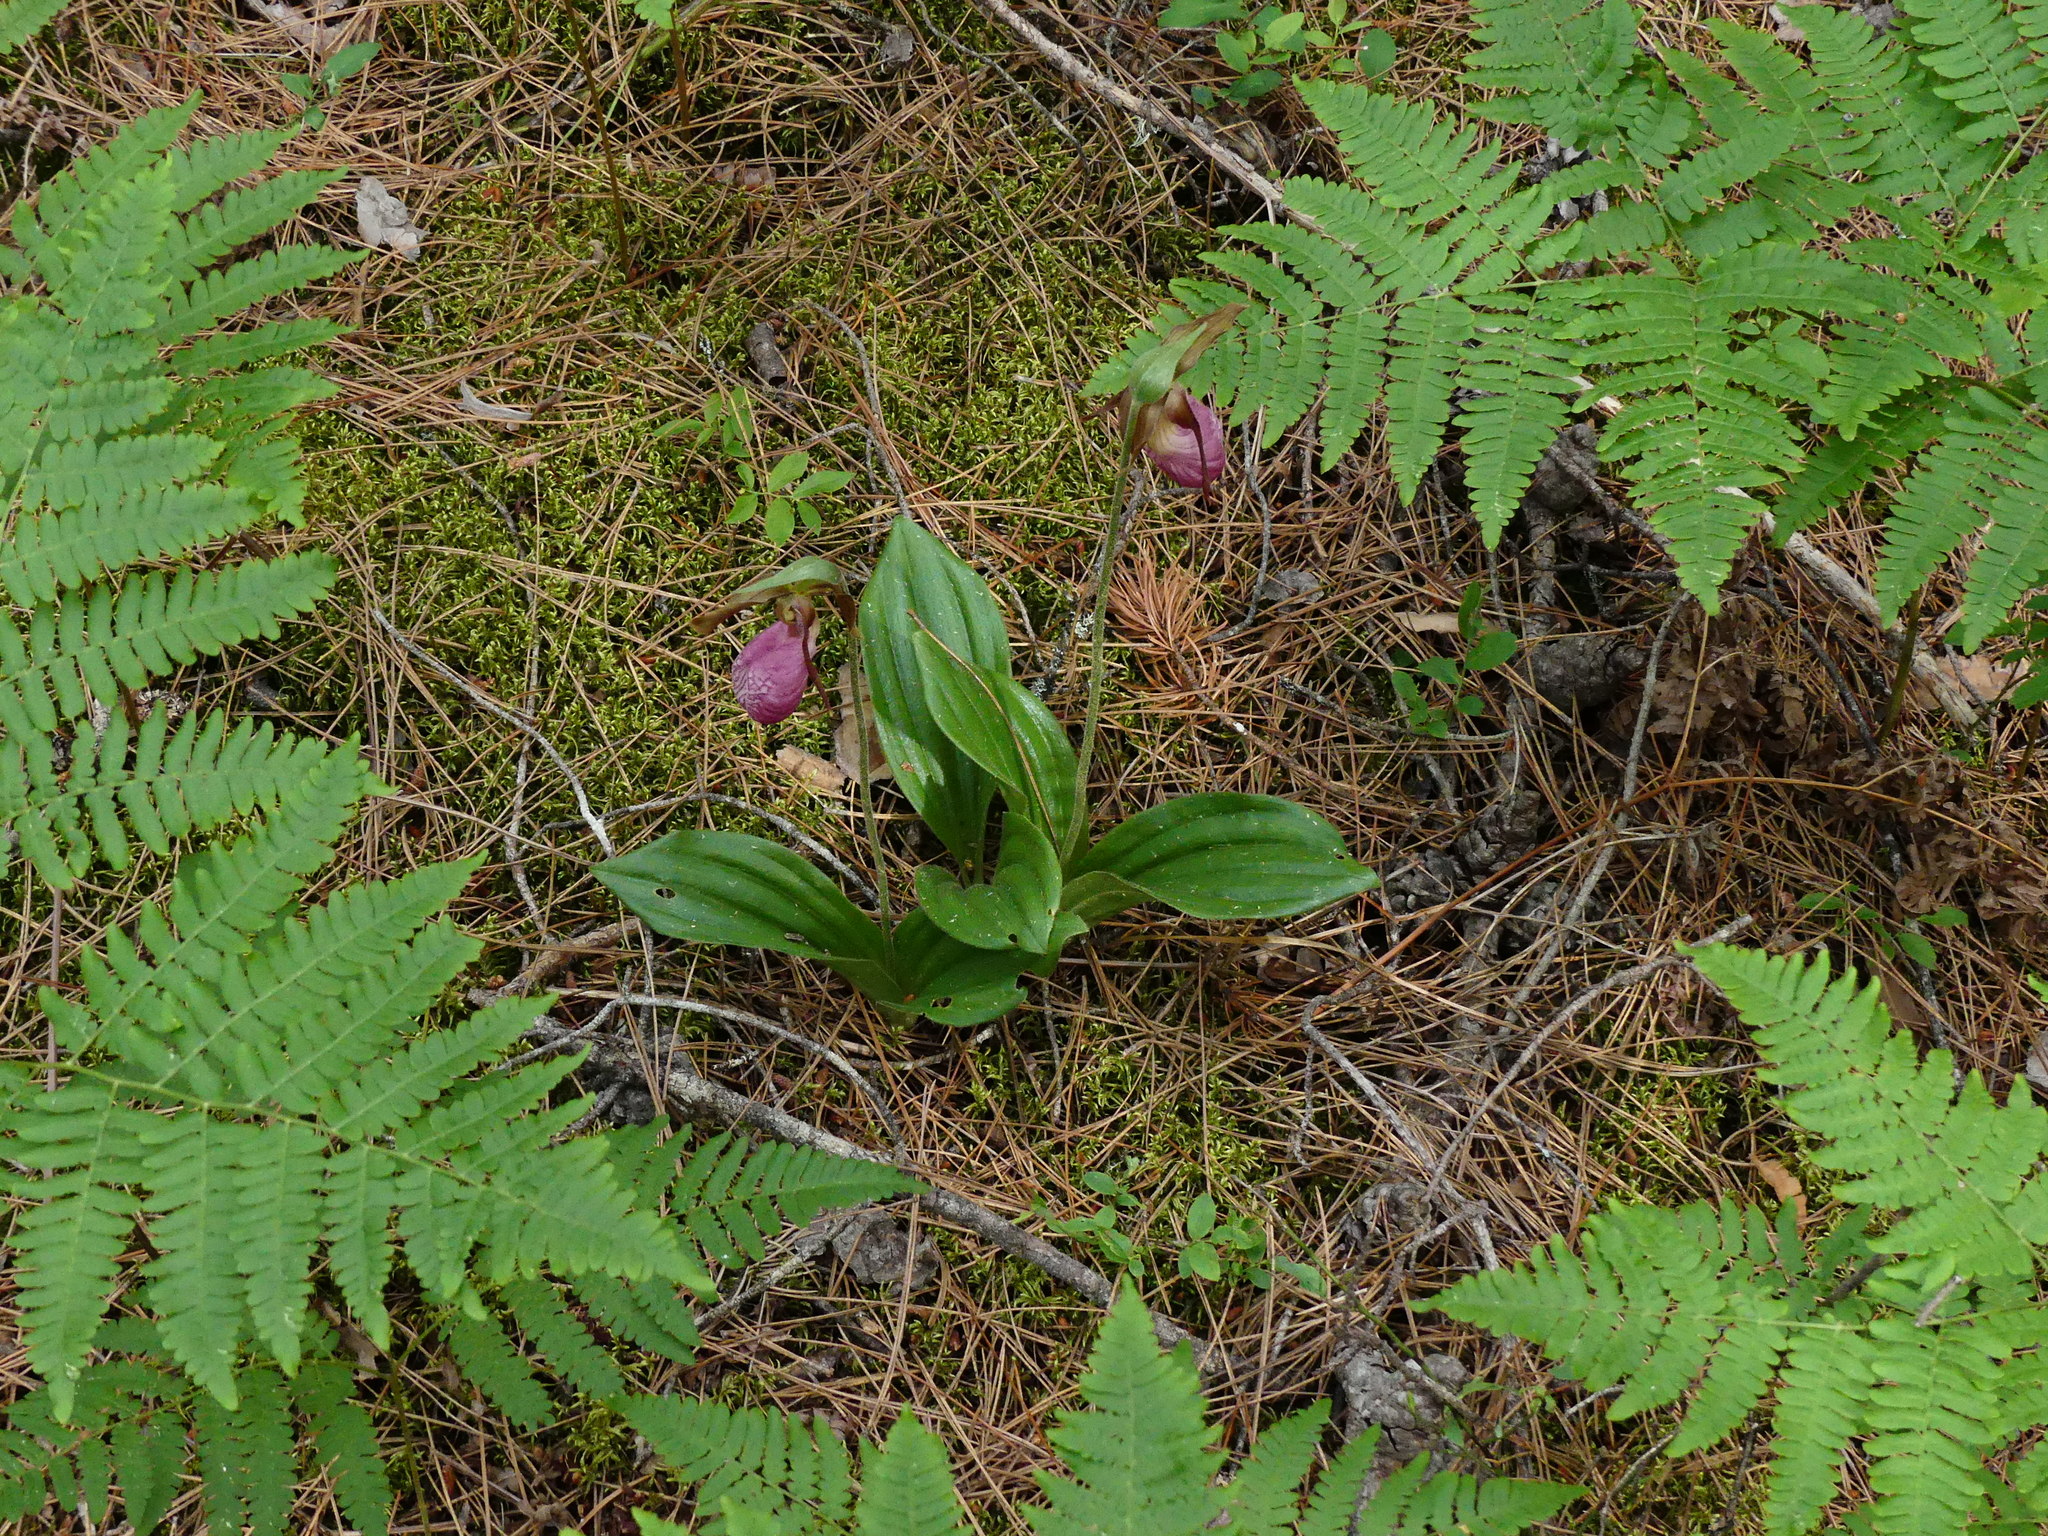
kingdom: Plantae
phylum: Tracheophyta
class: Liliopsida
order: Asparagales
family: Orchidaceae
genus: Cypripedium
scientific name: Cypripedium acaule
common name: Pink lady's-slipper
